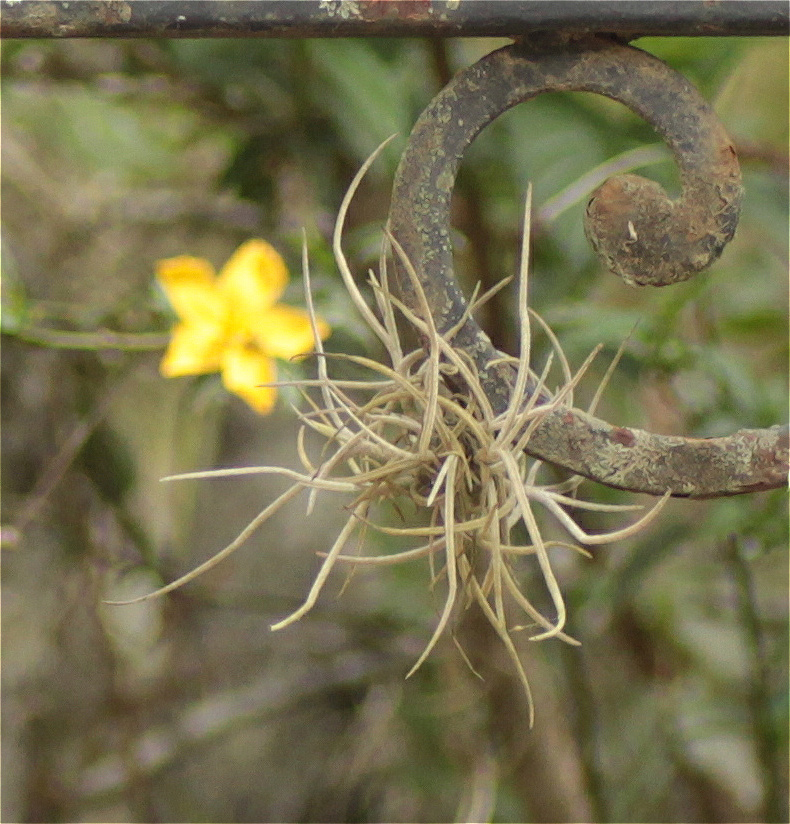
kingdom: Plantae
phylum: Tracheophyta
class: Liliopsida
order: Poales
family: Bromeliaceae
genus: Tillandsia
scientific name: Tillandsia recurvata
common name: Small ballmoss
